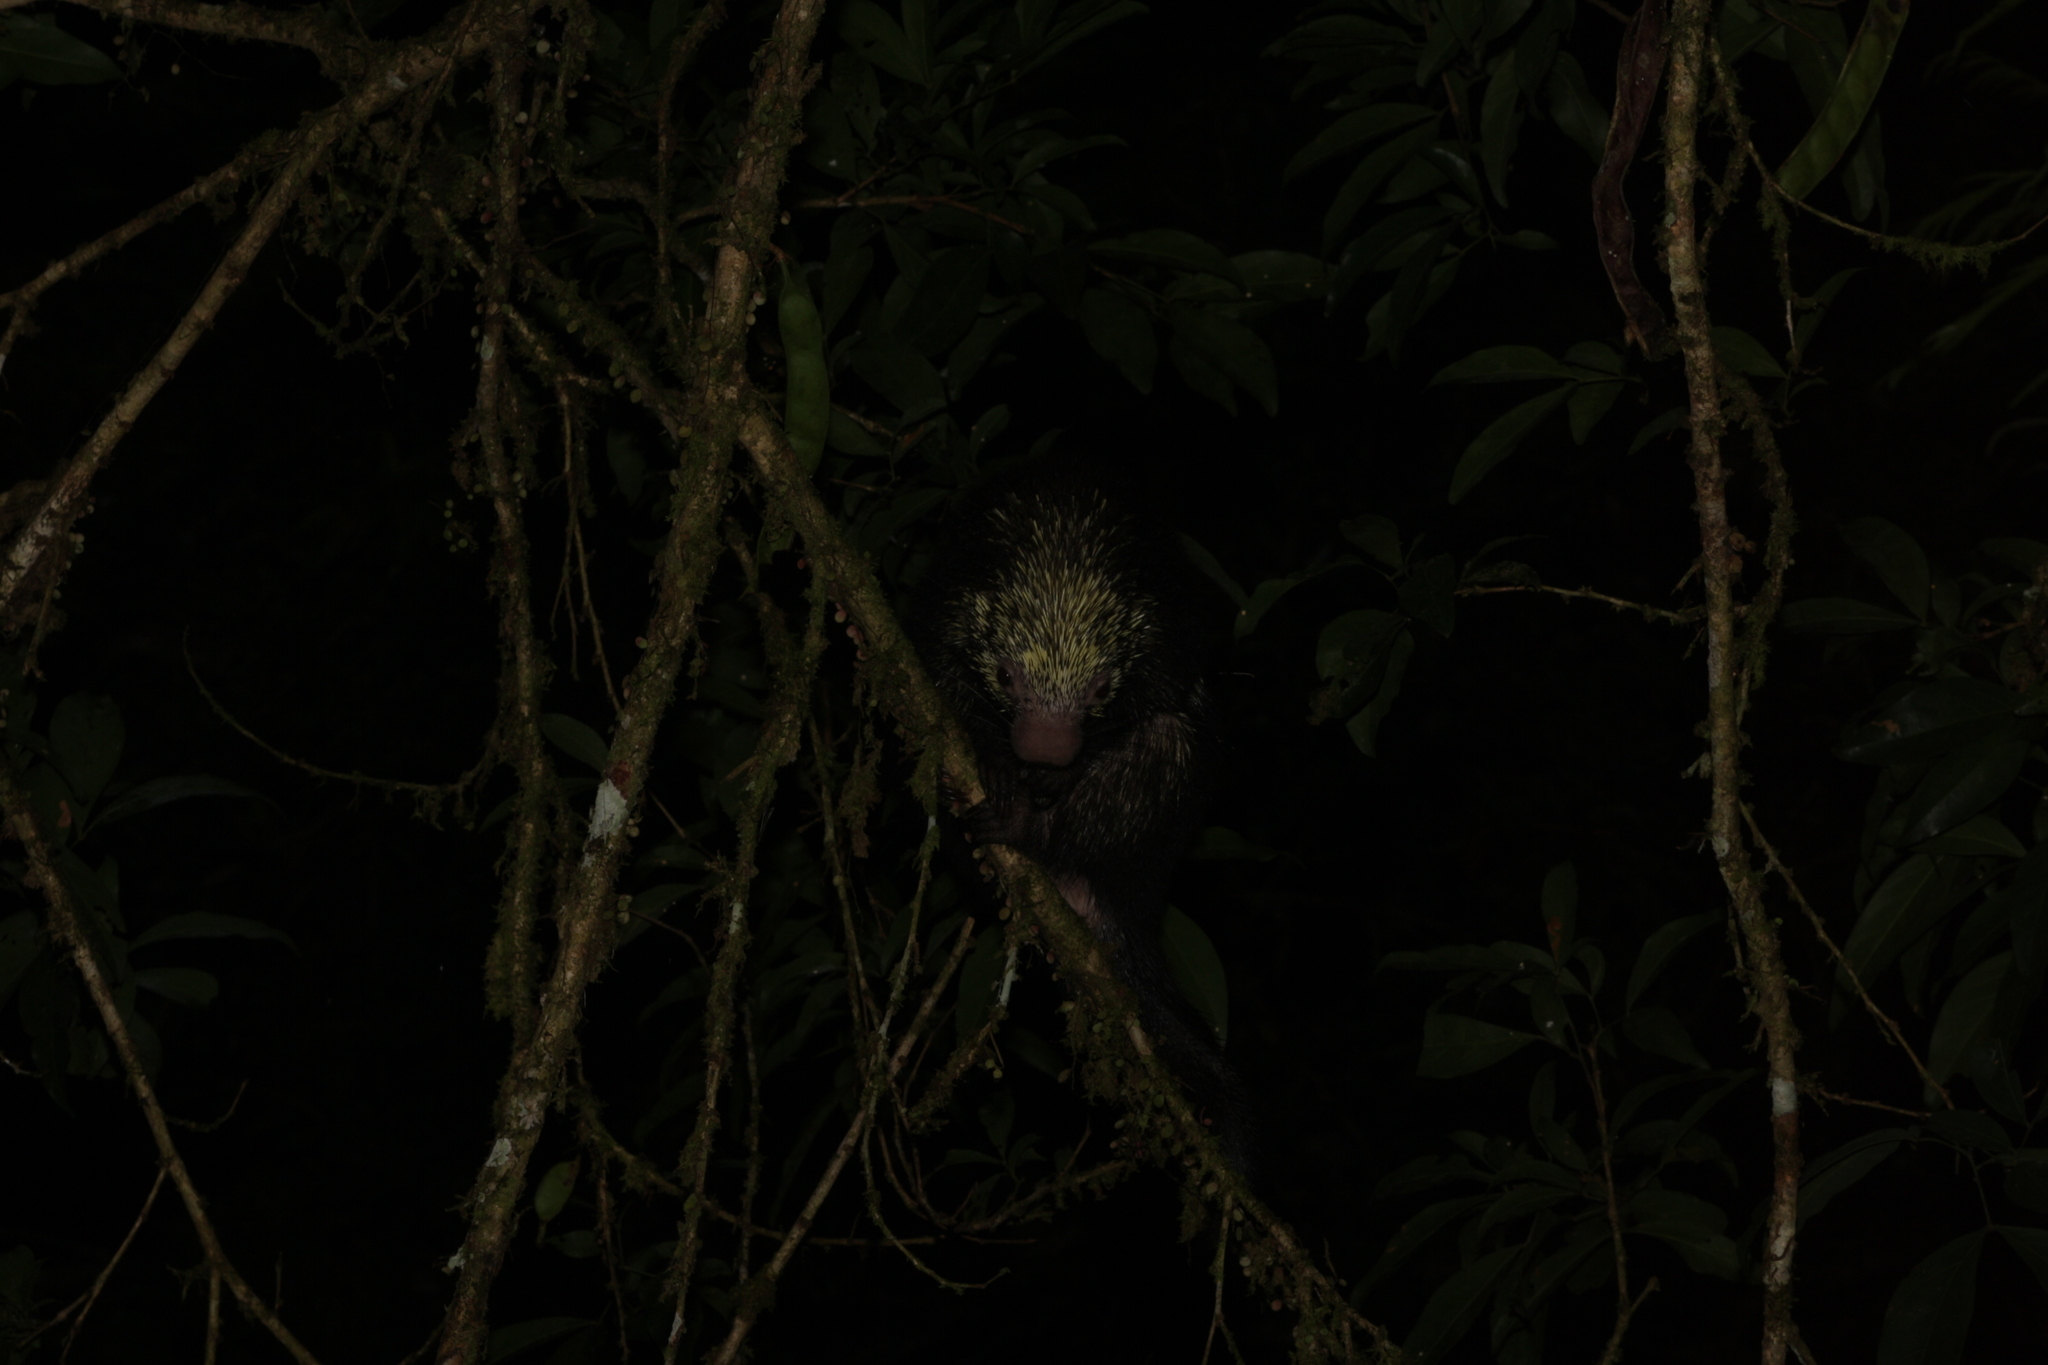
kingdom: Animalia
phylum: Chordata
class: Mammalia
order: Rodentia
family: Erethizontidae
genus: Sphiggurus
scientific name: Sphiggurus mexicanus
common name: Mexican hairy dwarf porcupine
